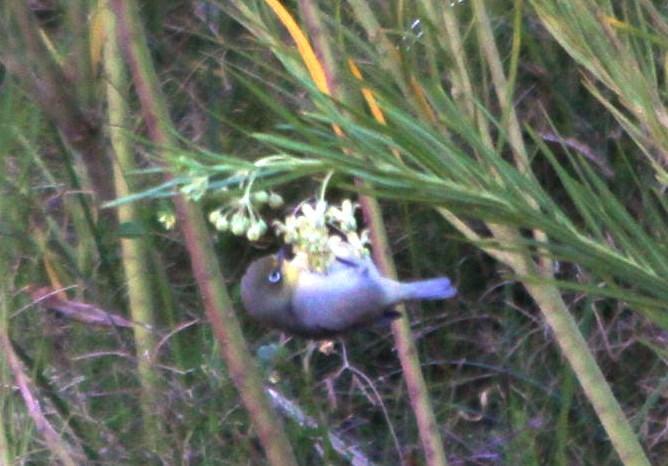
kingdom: Animalia
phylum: Chordata
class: Aves
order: Passeriformes
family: Zosteropidae
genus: Zosterops
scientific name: Zosterops pallidus
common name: Orange river white-eye
